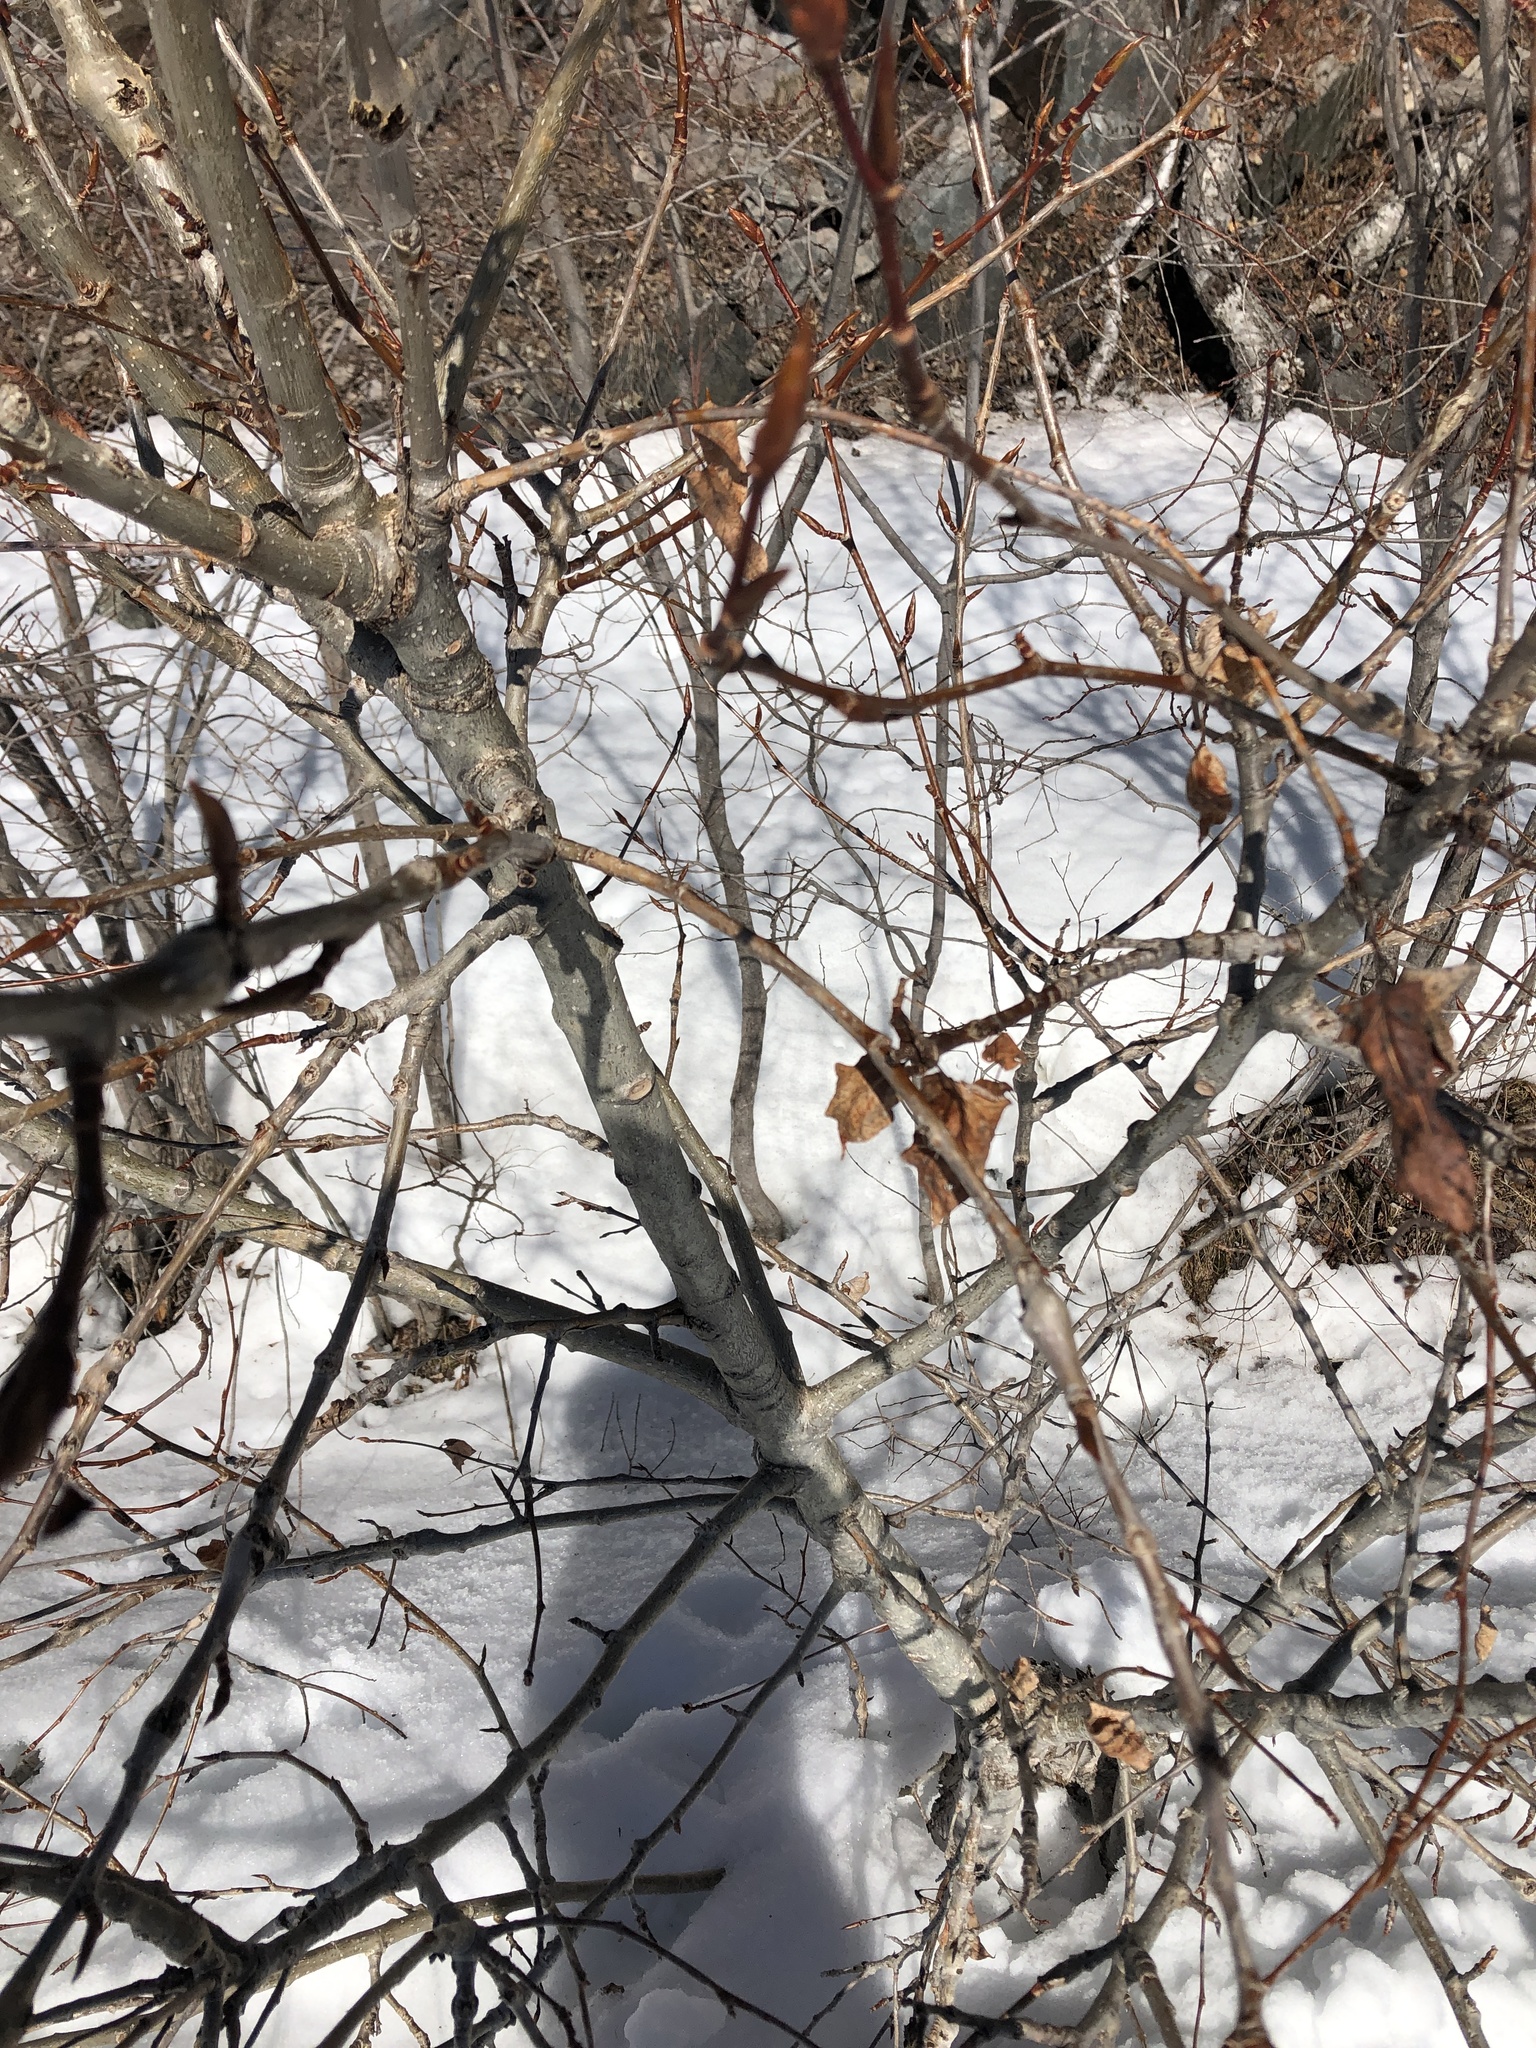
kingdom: Plantae
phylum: Tracheophyta
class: Magnoliopsida
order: Malpighiales
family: Salicaceae
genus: Populus
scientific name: Populus balsamifera
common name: Balsam poplar
